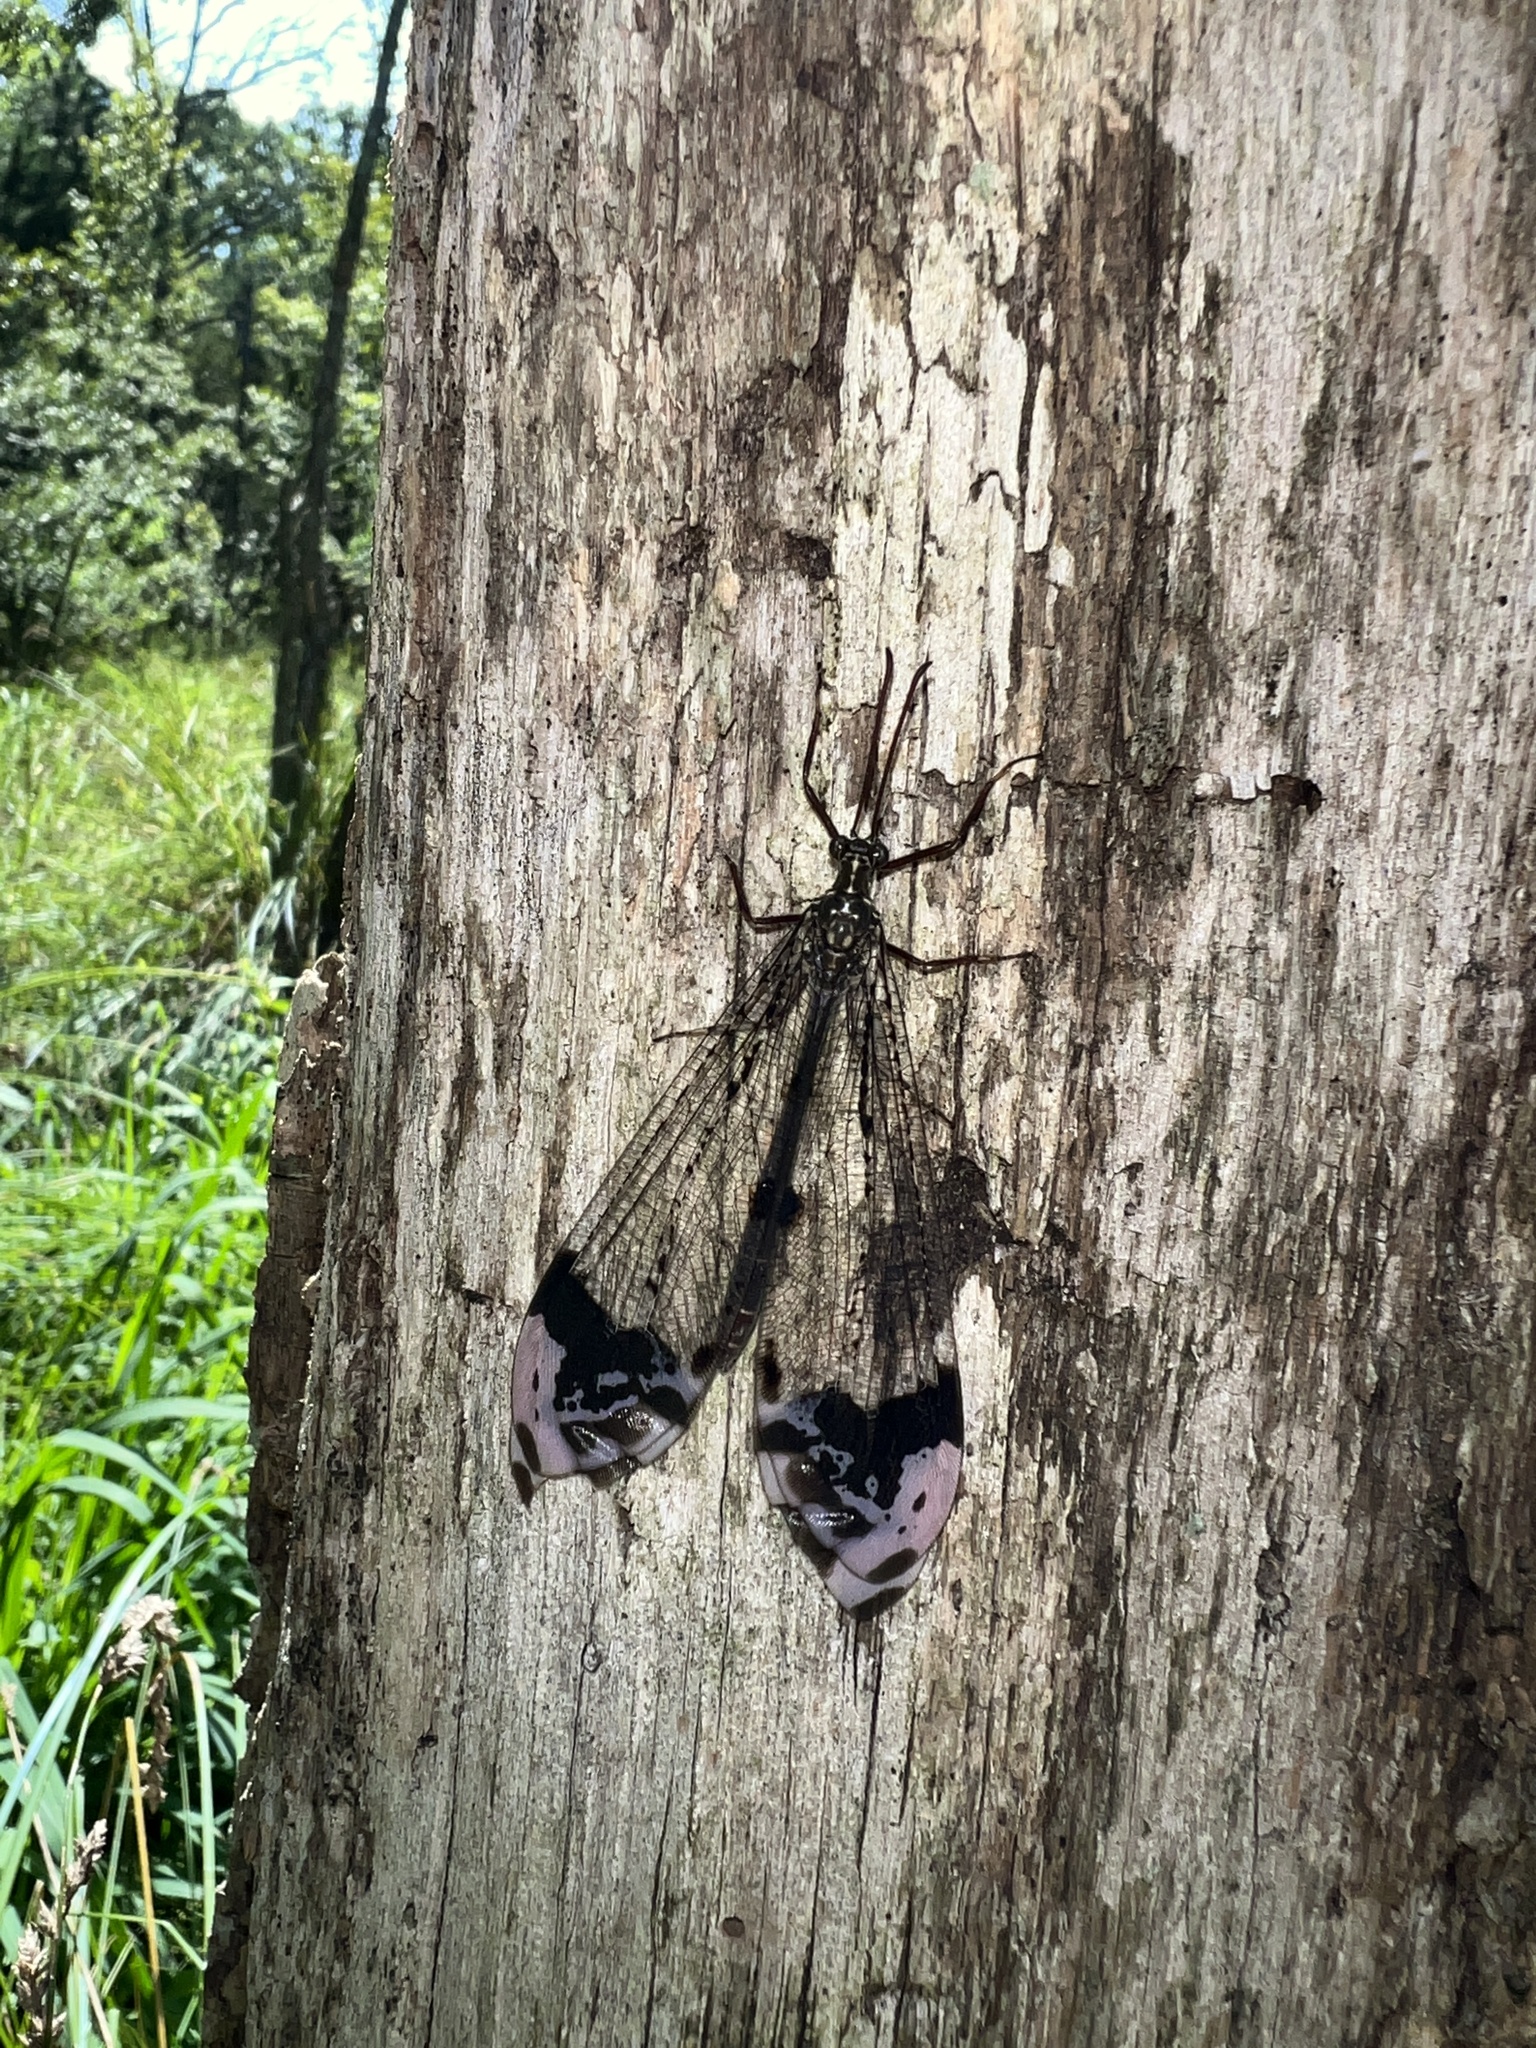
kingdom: Animalia
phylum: Arthropoda
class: Insecta
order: Neuroptera
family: Myrmeleontidae
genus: Glenurus
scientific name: Glenurus gratus
